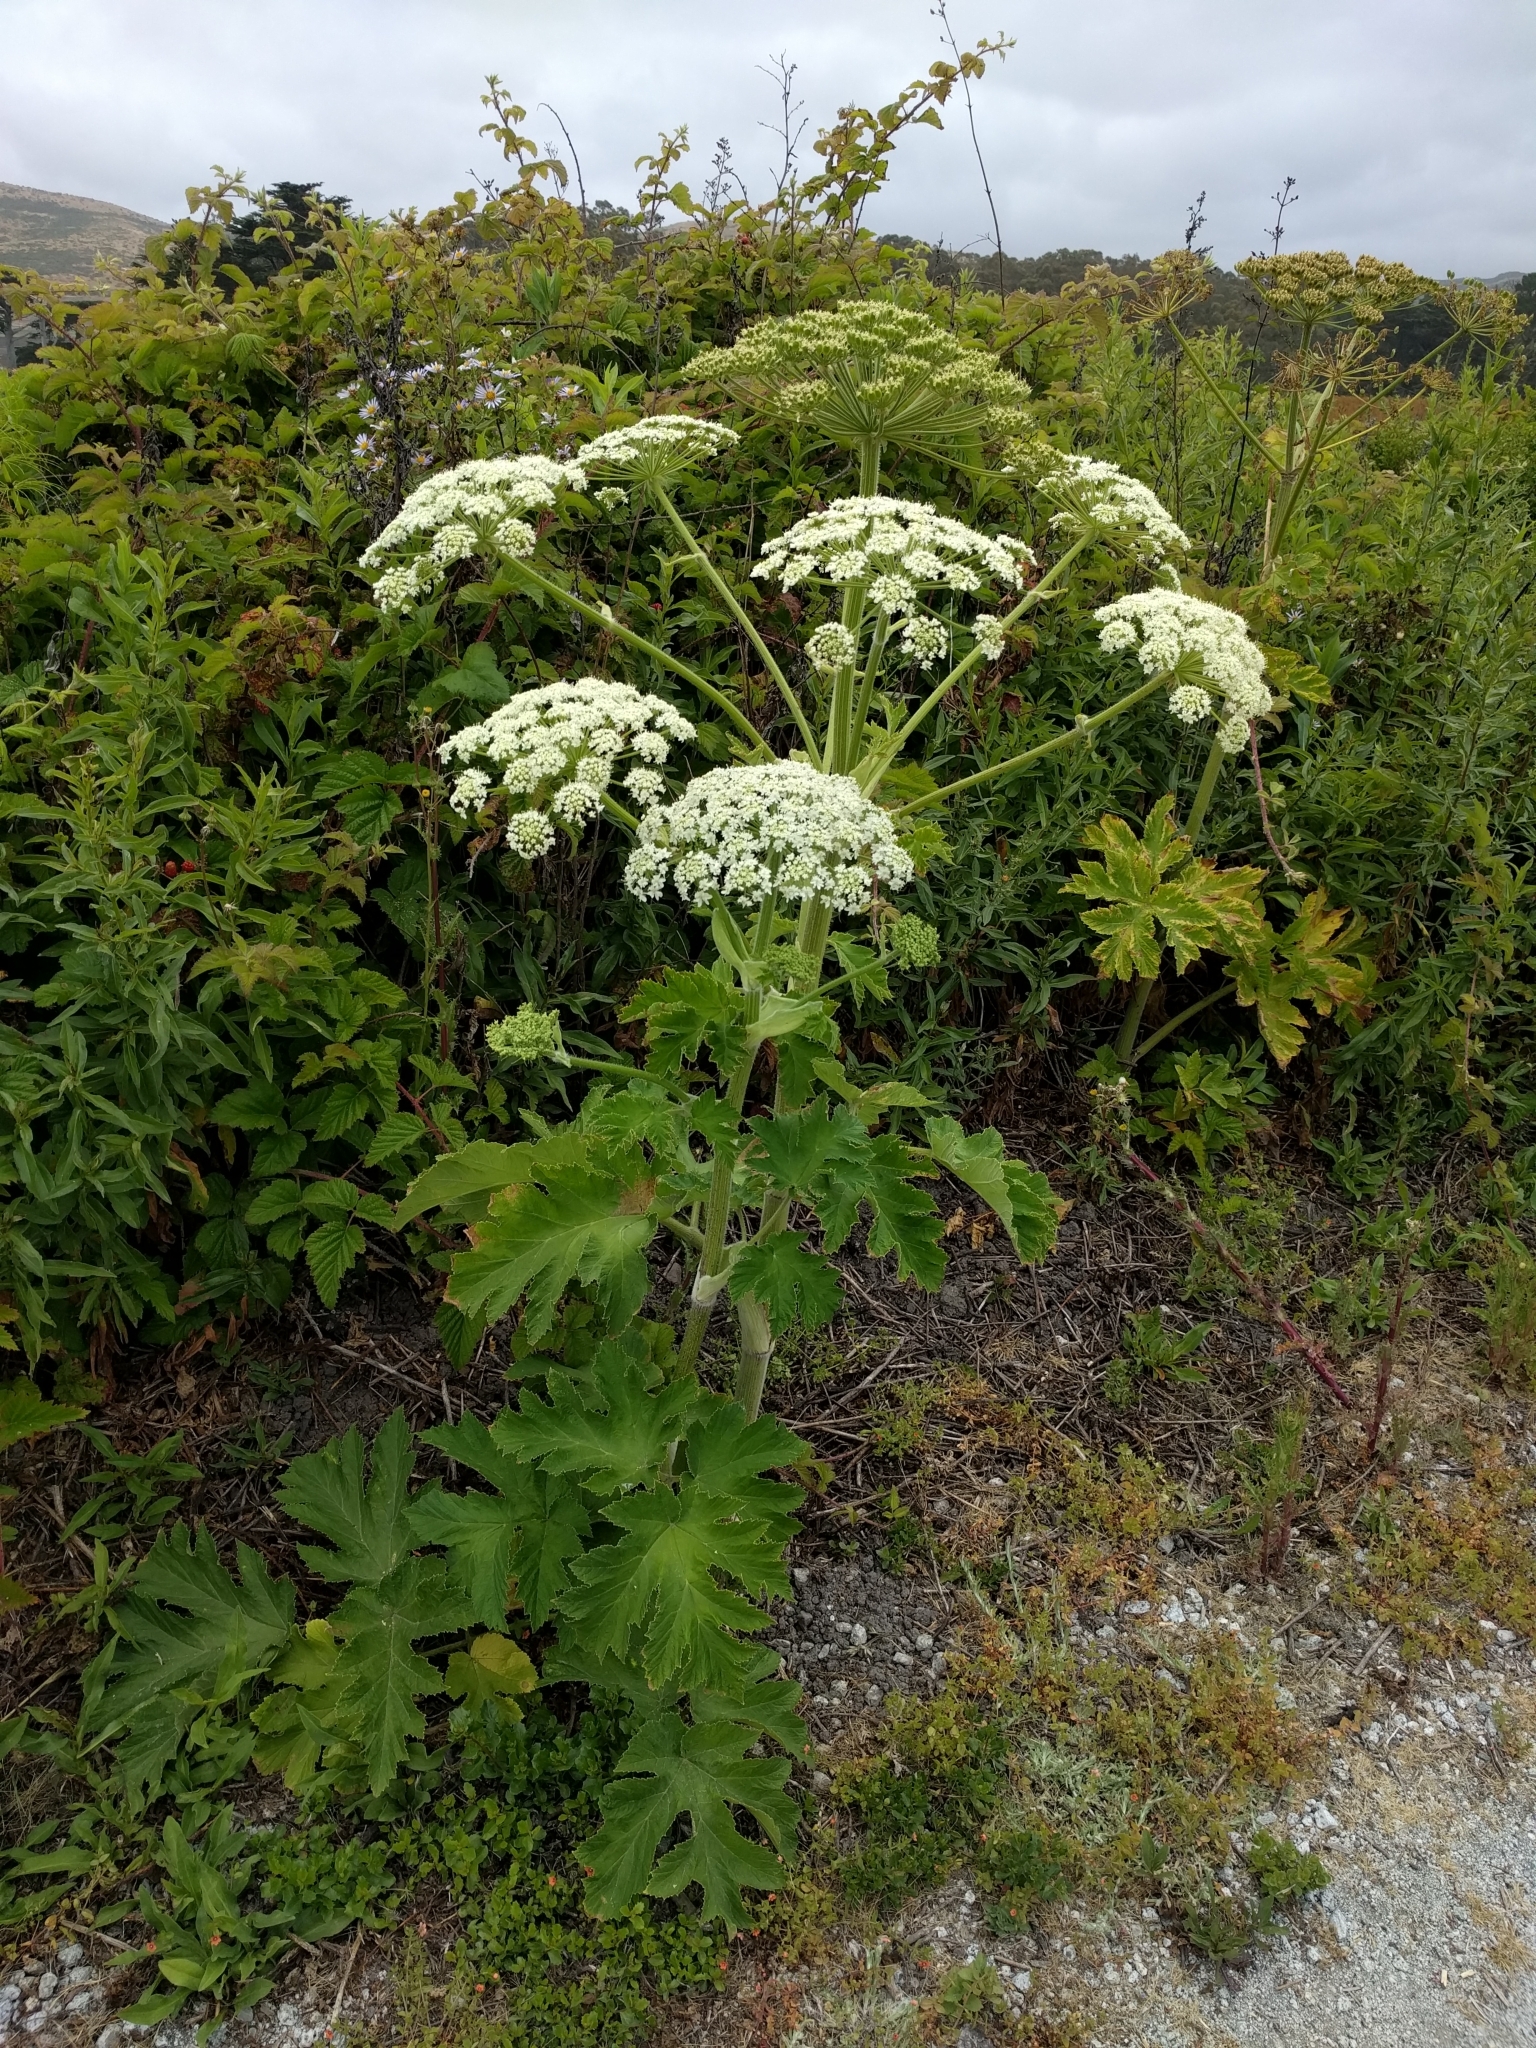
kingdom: Plantae
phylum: Tracheophyta
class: Magnoliopsida
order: Apiales
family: Apiaceae
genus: Heracleum
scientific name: Heracleum maximum
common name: American cow parsnip
